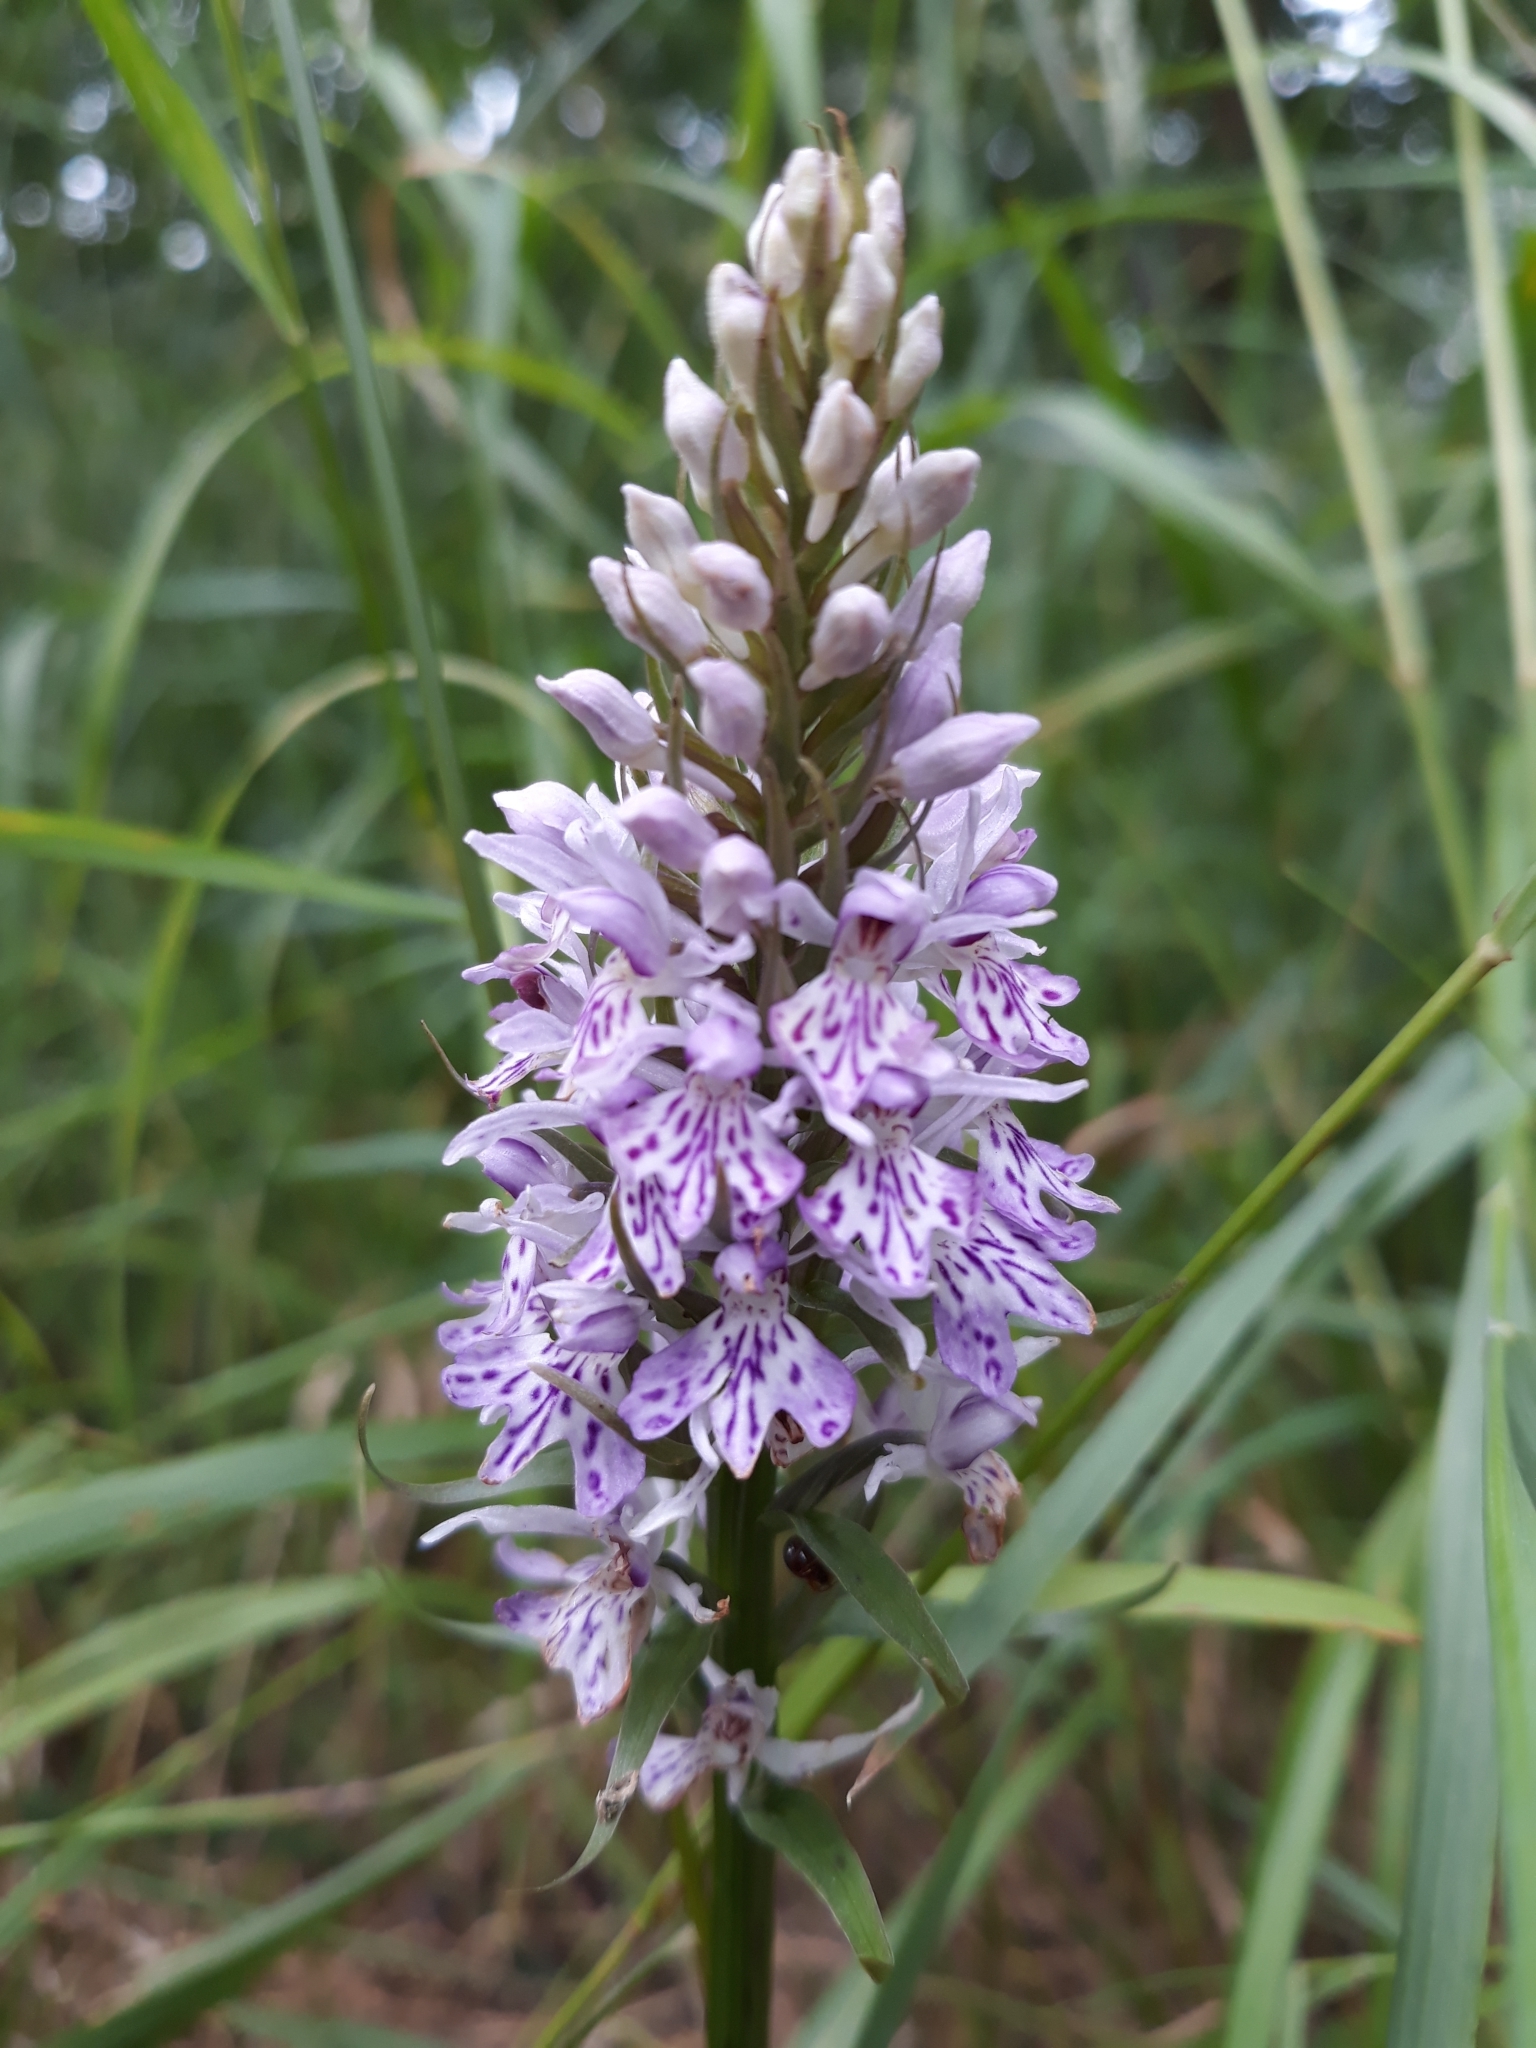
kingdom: Plantae
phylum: Tracheophyta
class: Liliopsida
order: Asparagales
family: Orchidaceae
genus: Dactylorhiza
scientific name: Dactylorhiza maculata
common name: Heath spotted-orchid
